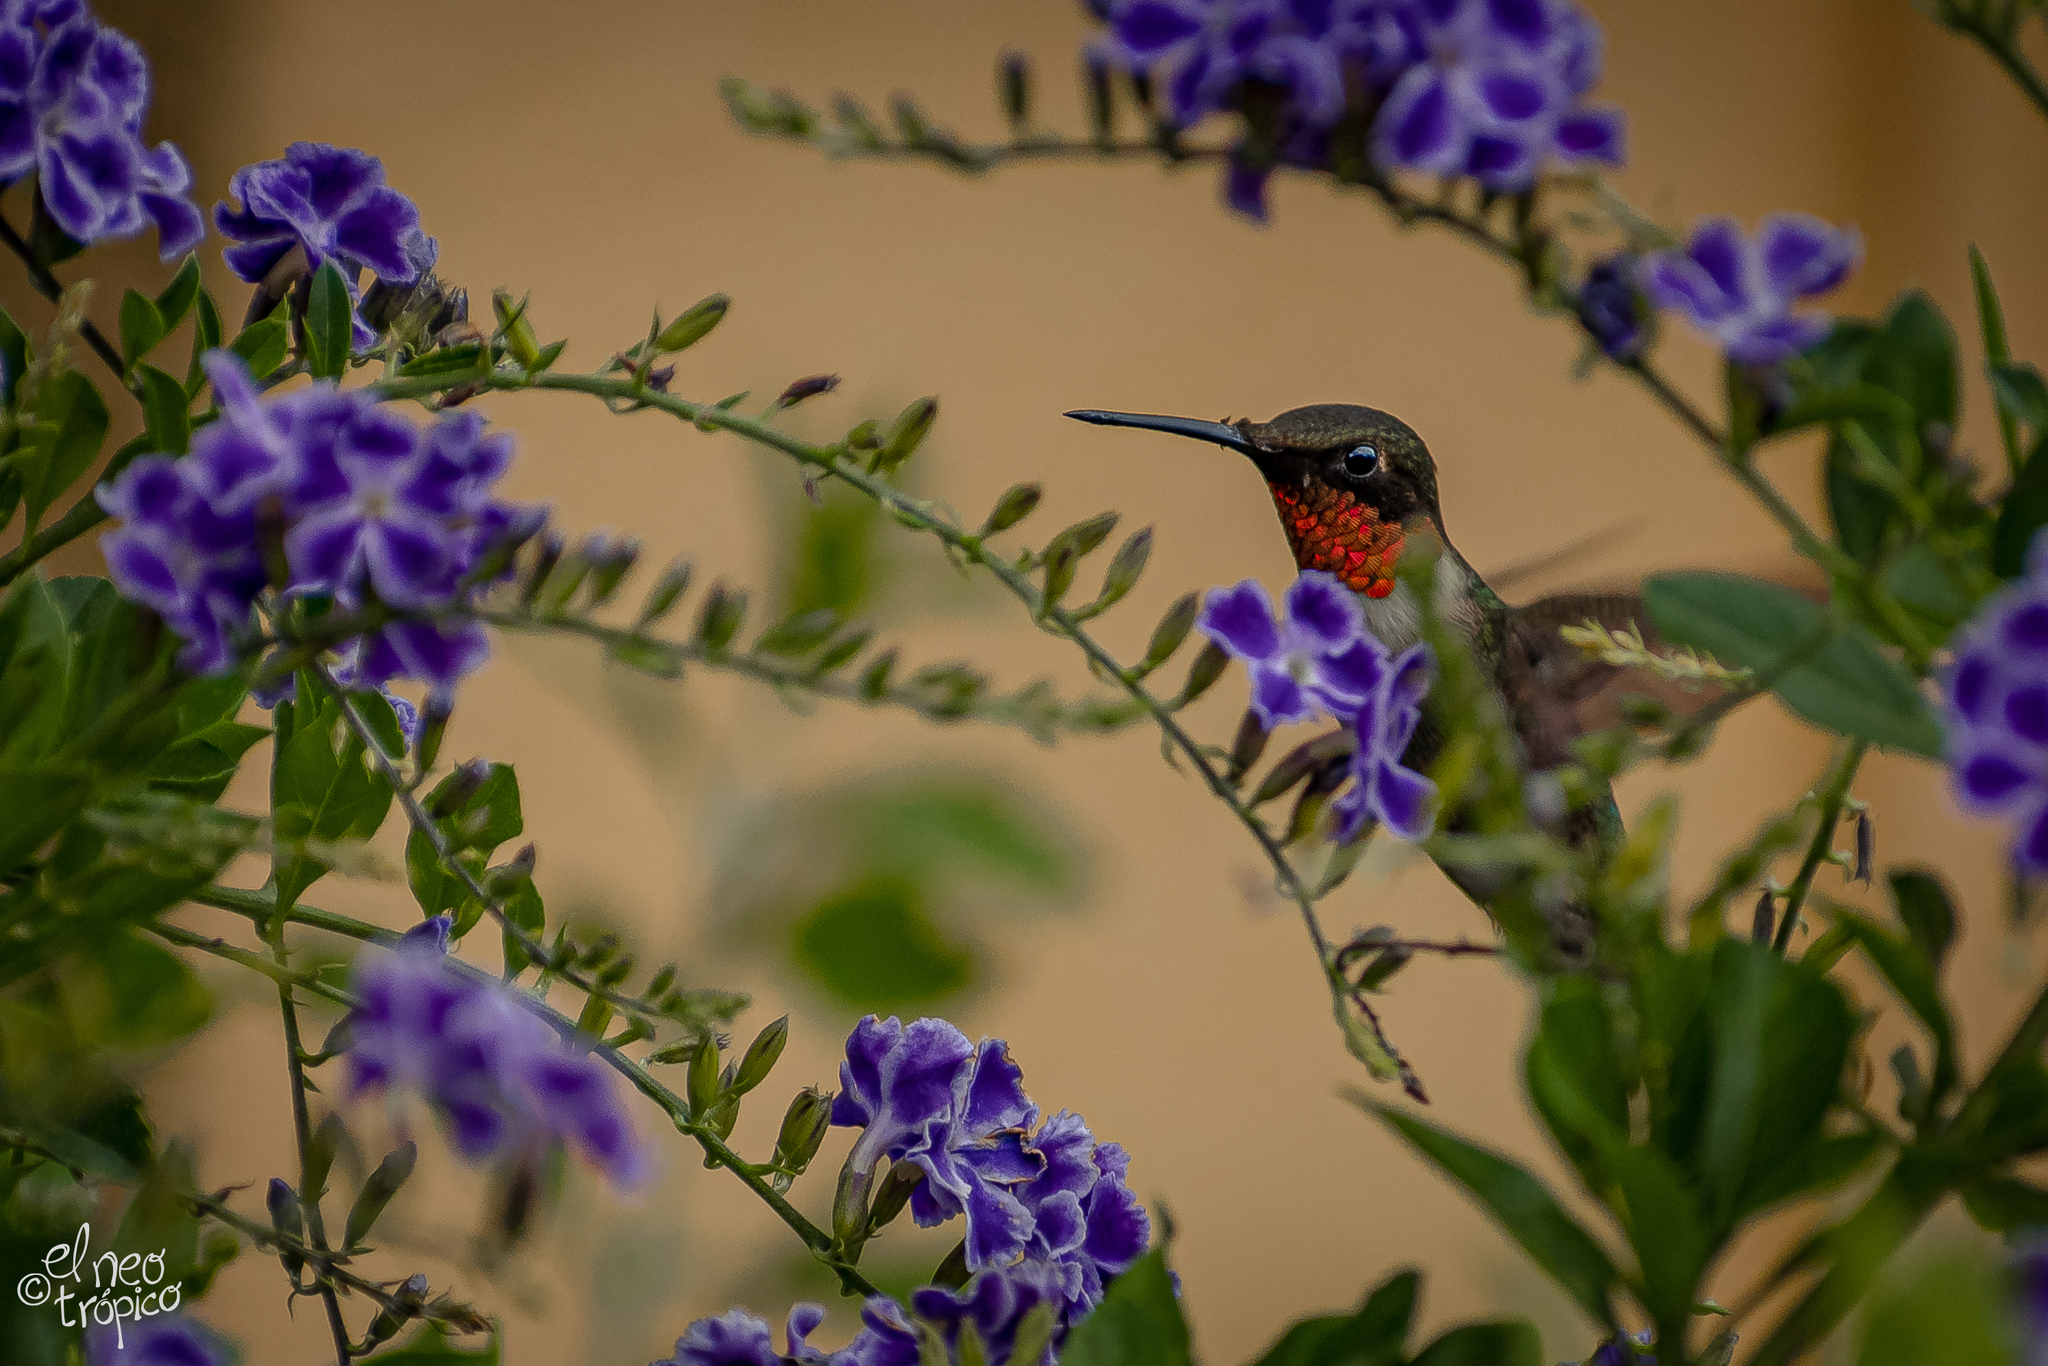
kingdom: Animalia
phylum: Chordata
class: Aves
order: Apodiformes
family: Trochilidae
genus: Archilochus
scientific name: Archilochus colubris
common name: Ruby-throated hummingbird
